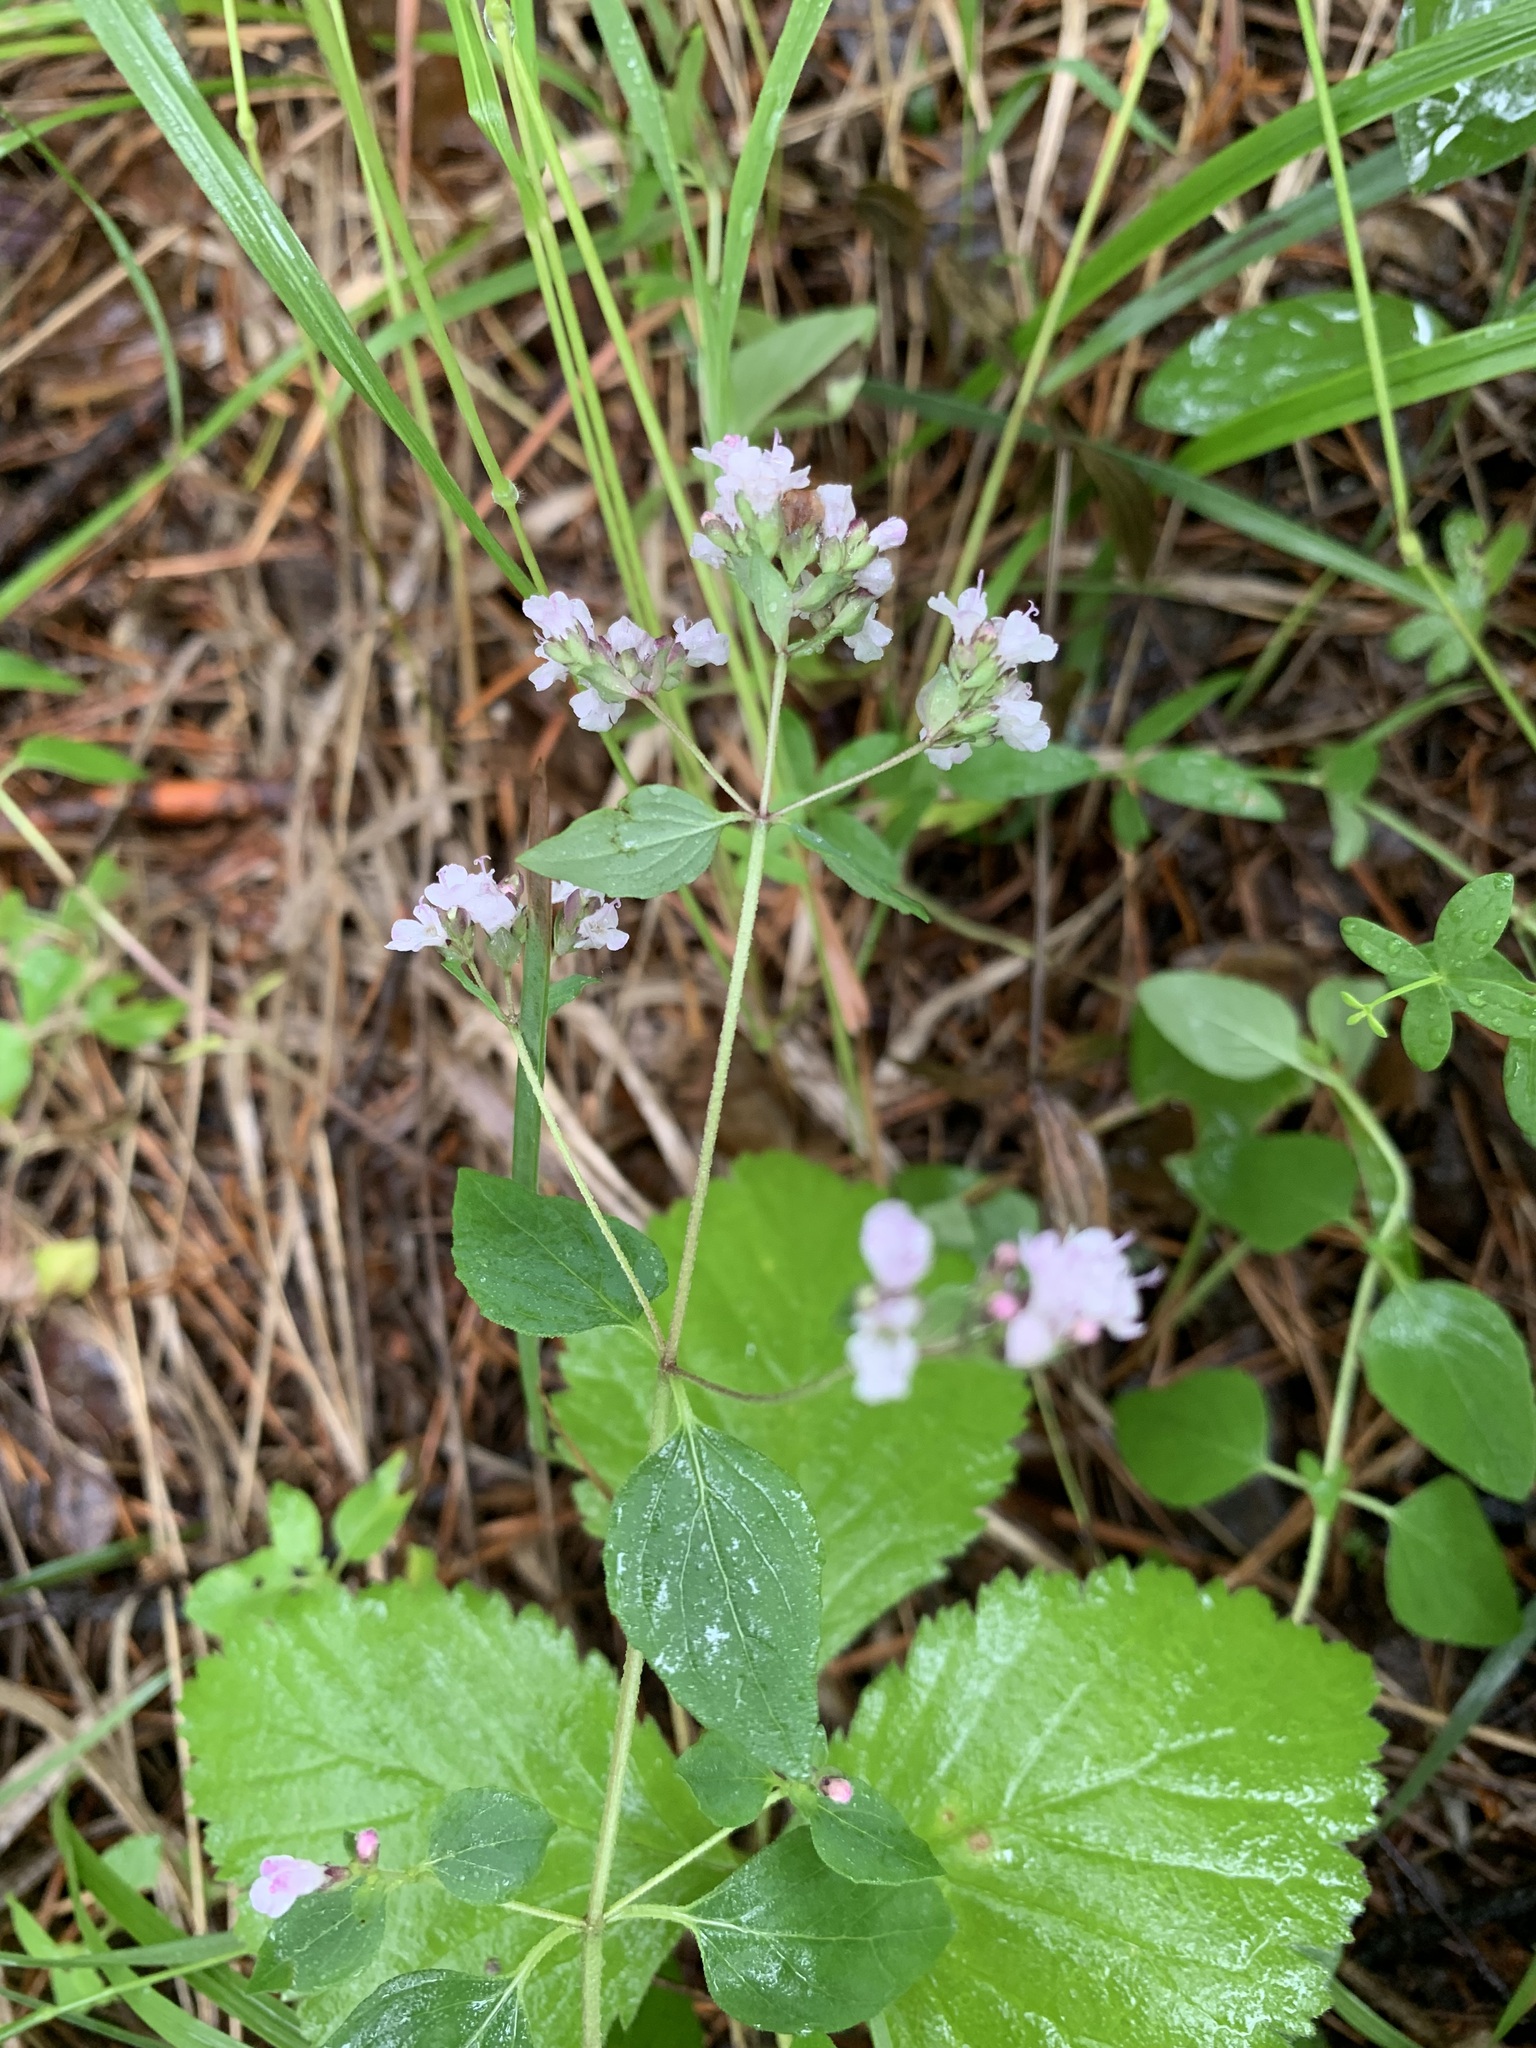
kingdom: Plantae
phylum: Tracheophyta
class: Magnoliopsida
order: Lamiales
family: Lamiaceae
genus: Origanum
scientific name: Origanum vulgare
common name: Wild marjoram
